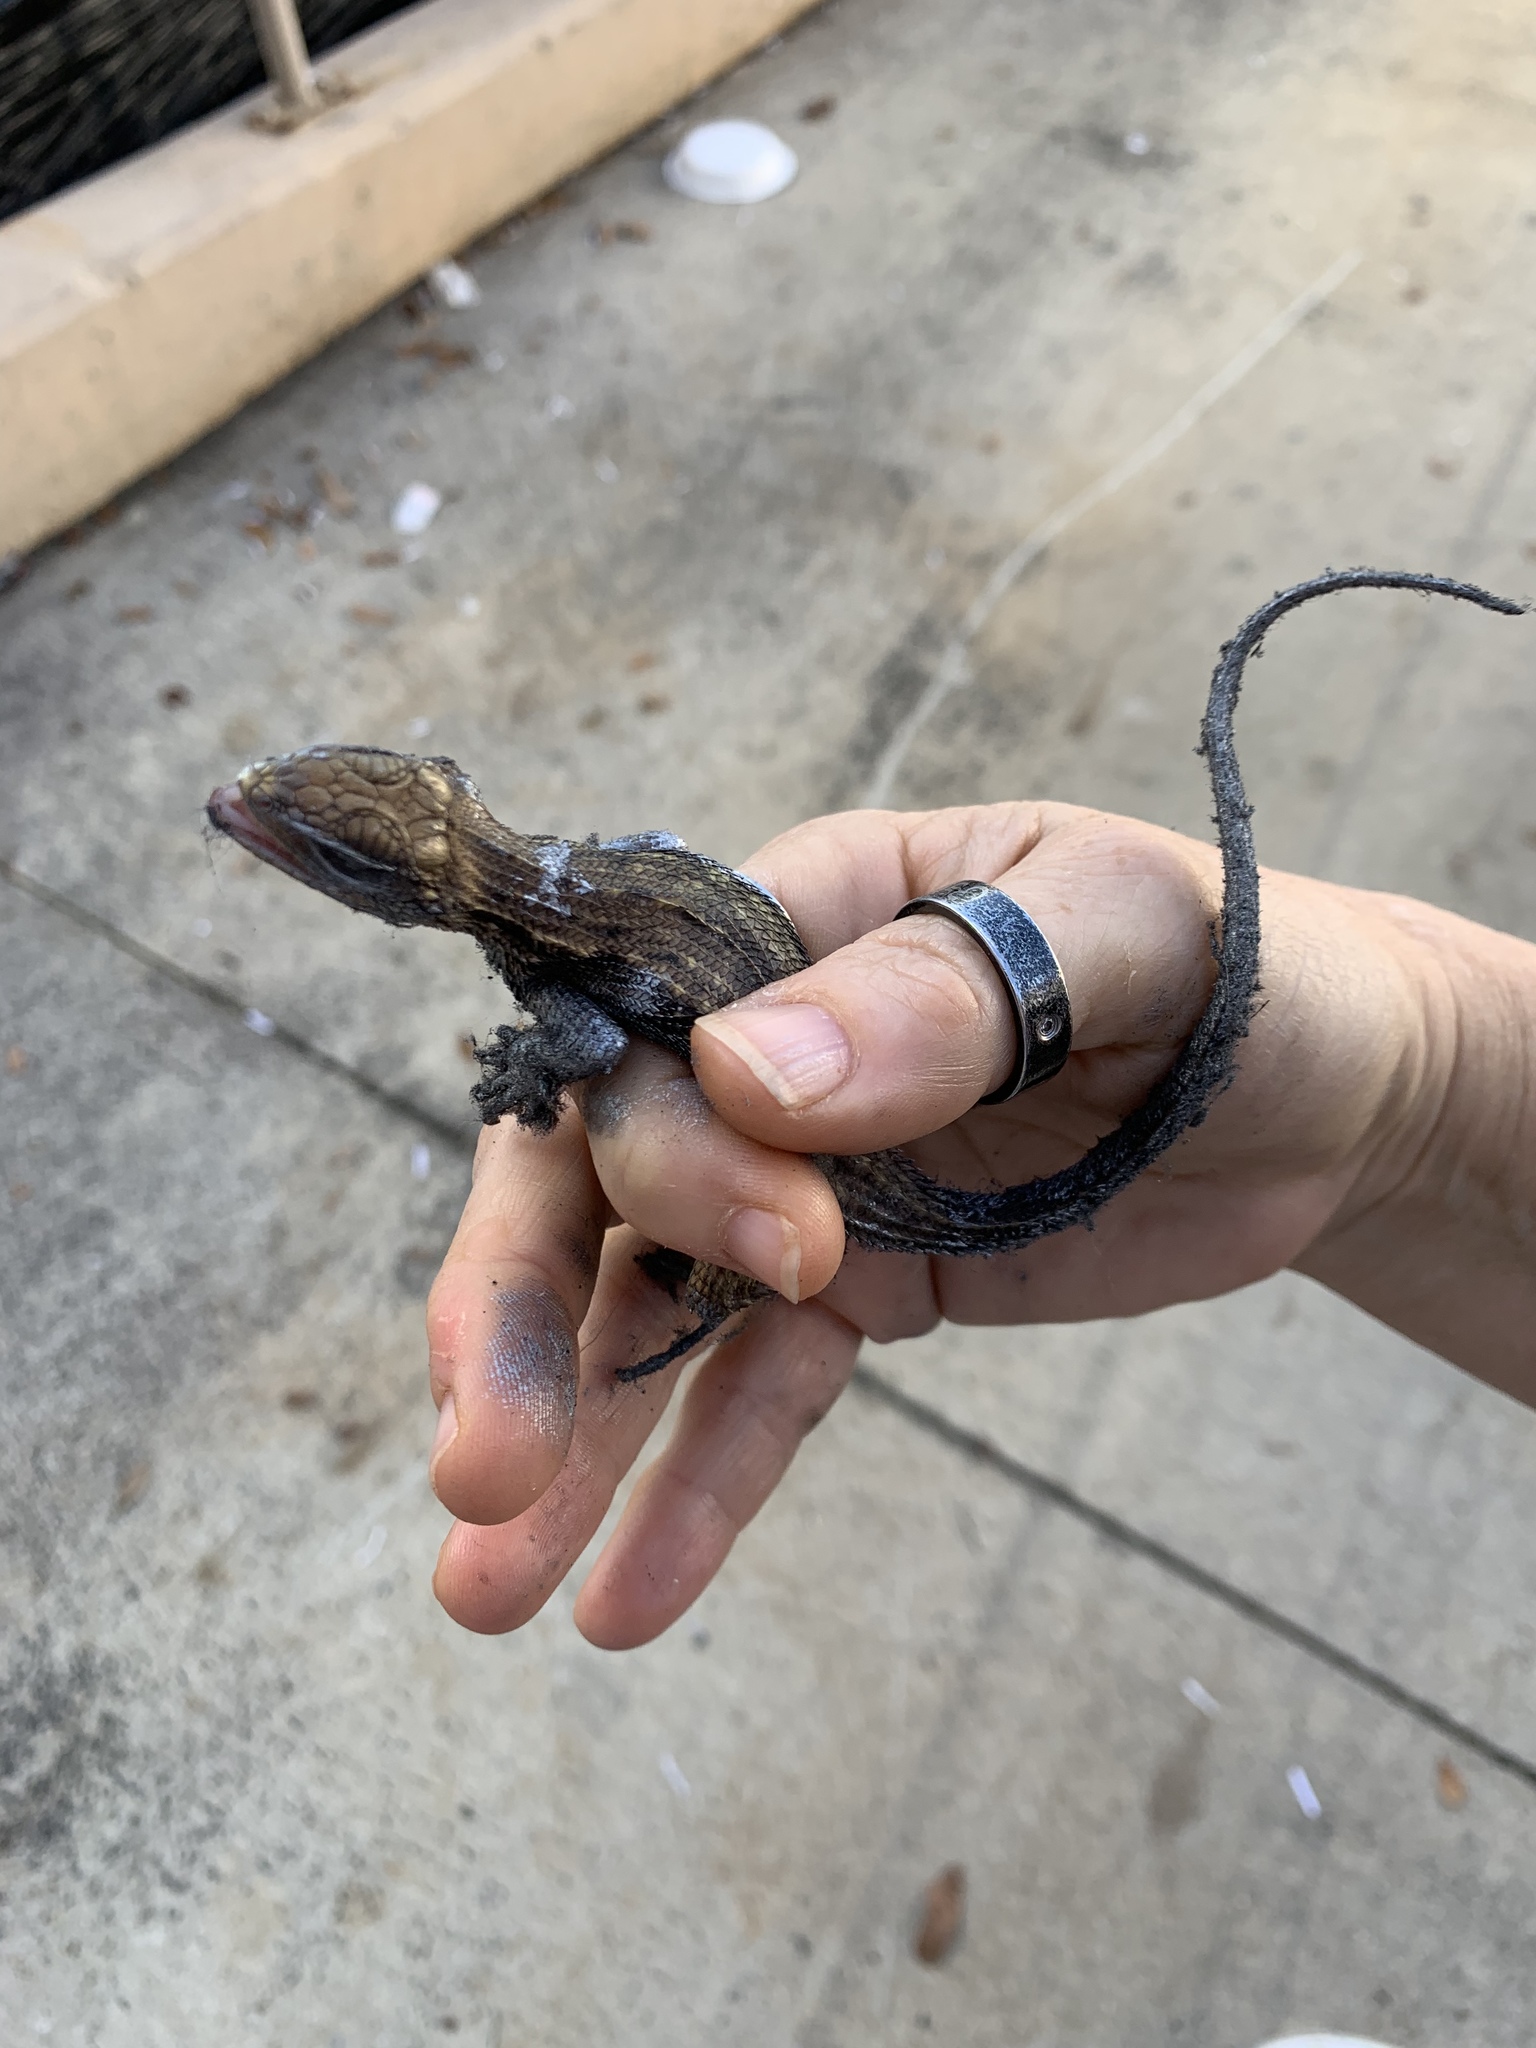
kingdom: Animalia
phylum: Chordata
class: Squamata
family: Leiocephalidae
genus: Leiocephalus
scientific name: Leiocephalus carinatus
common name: Northern curly-tailed lizard
